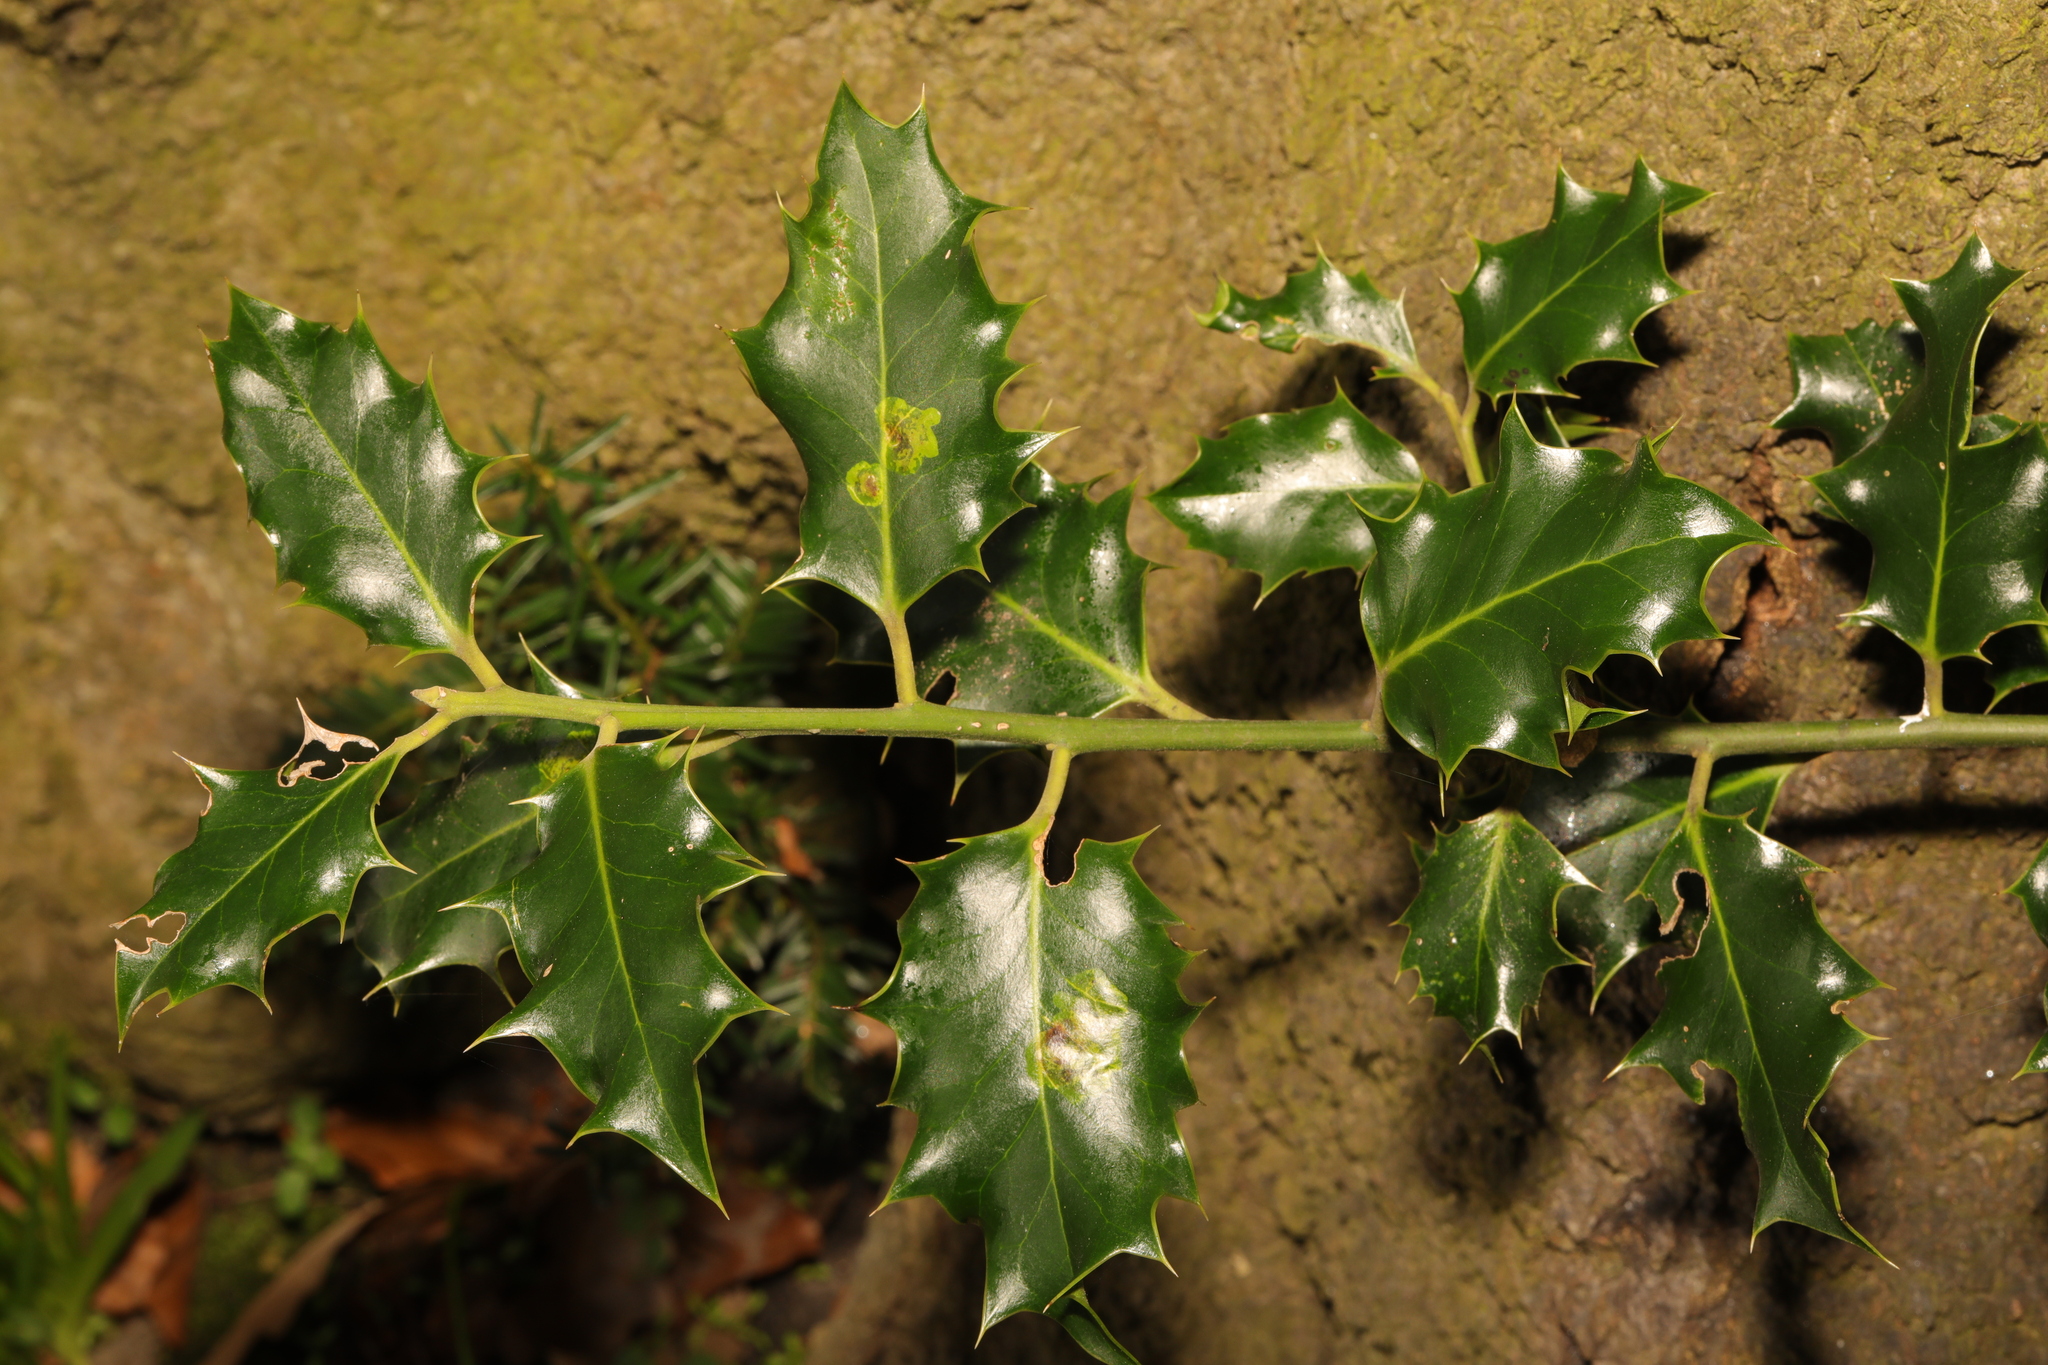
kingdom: Plantae
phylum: Tracheophyta
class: Magnoliopsida
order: Aquifoliales
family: Aquifoliaceae
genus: Ilex
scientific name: Ilex aquifolium
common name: English holly
